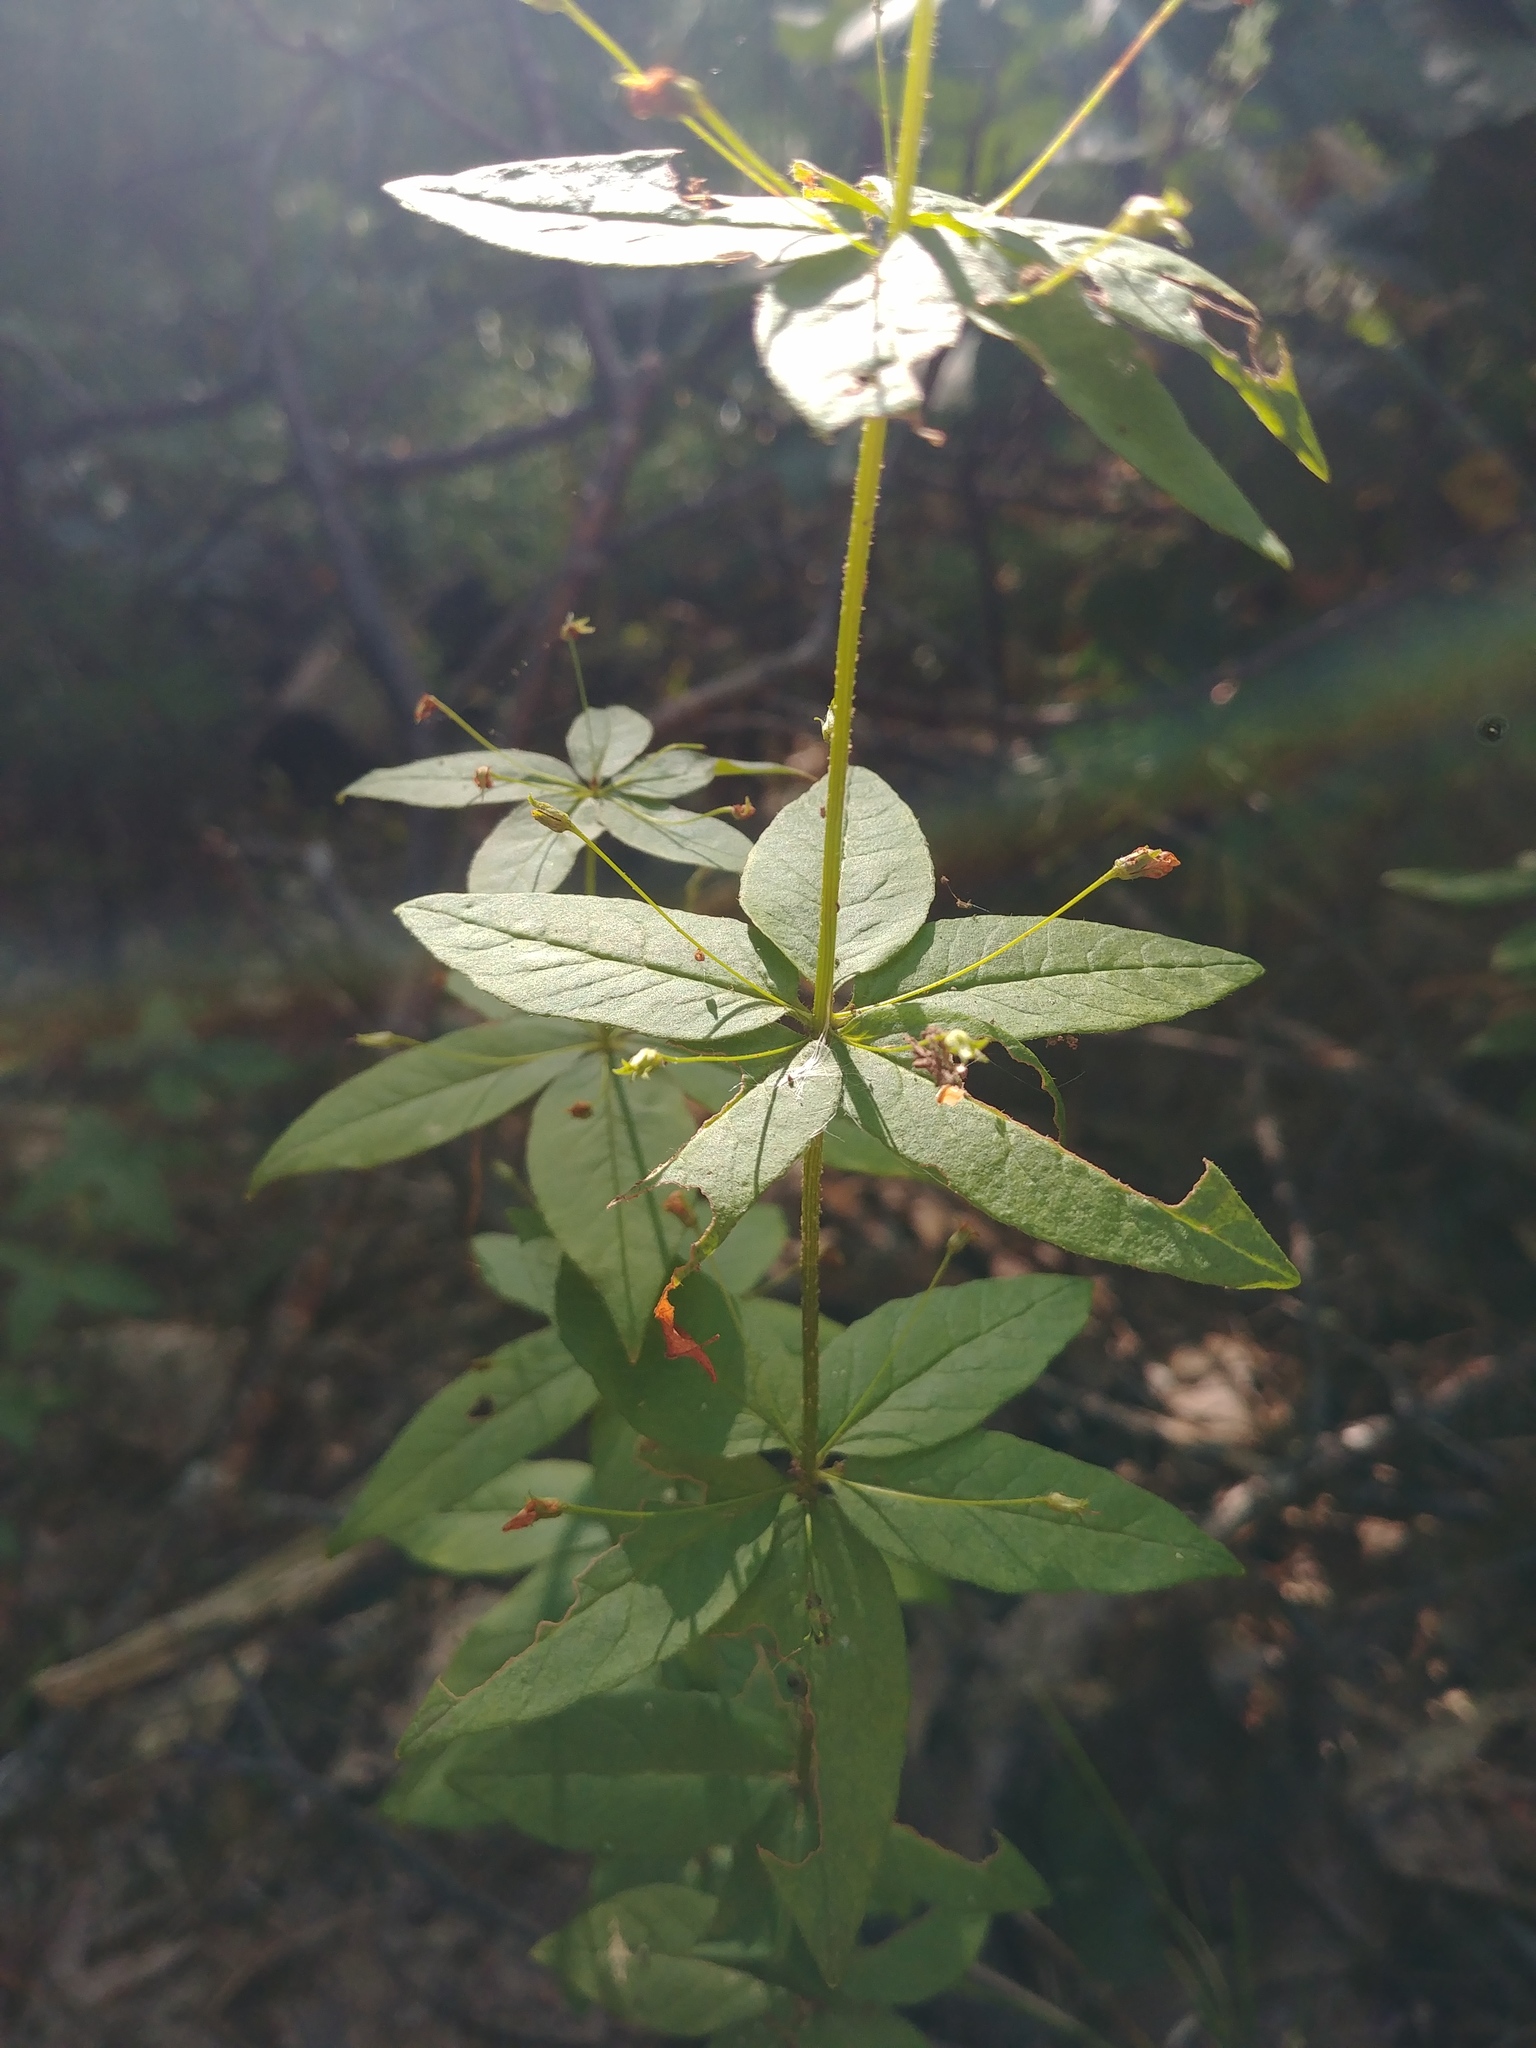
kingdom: Plantae
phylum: Tracheophyta
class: Magnoliopsida
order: Ericales
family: Primulaceae
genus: Lysimachia
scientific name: Lysimachia quadrifolia
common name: Whorled loosestrife
